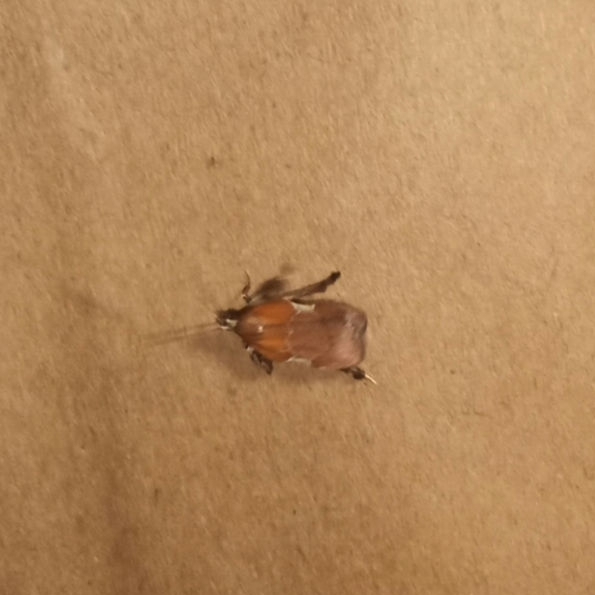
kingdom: Animalia
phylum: Arthropoda
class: Insecta
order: Lepidoptera
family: Pyralidae
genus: Galasa
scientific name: Galasa nigrinodis
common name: Boxwood leaftier moth
